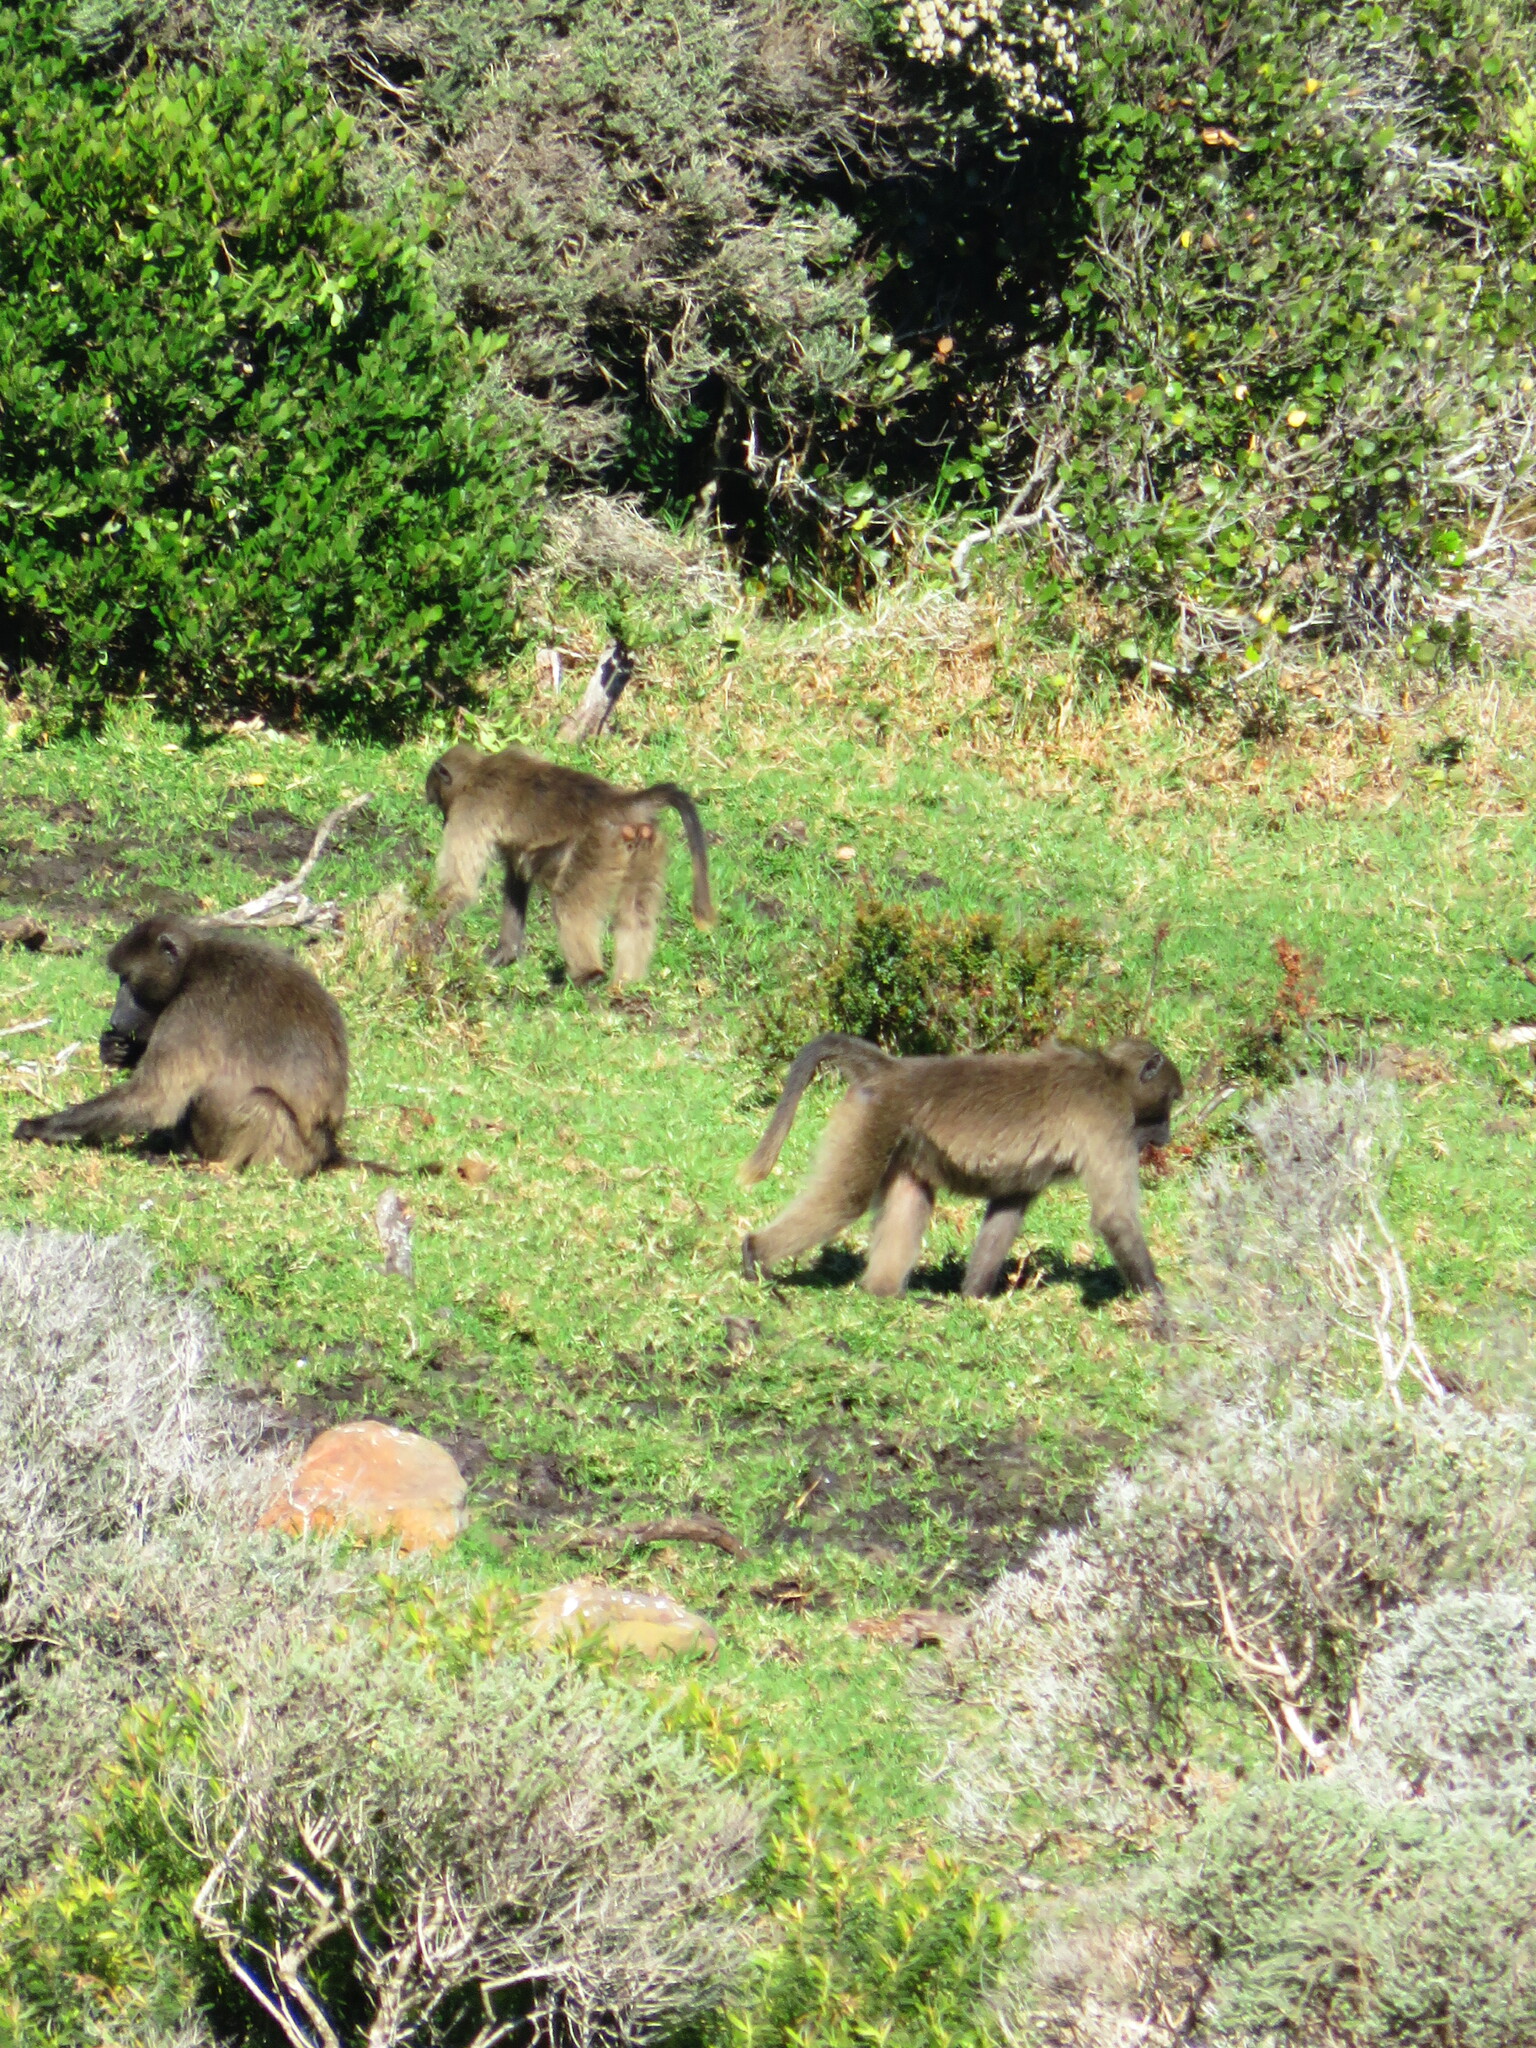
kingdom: Animalia
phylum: Chordata
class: Mammalia
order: Primates
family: Cercopithecidae
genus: Papio
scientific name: Papio ursinus
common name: Chacma baboon
